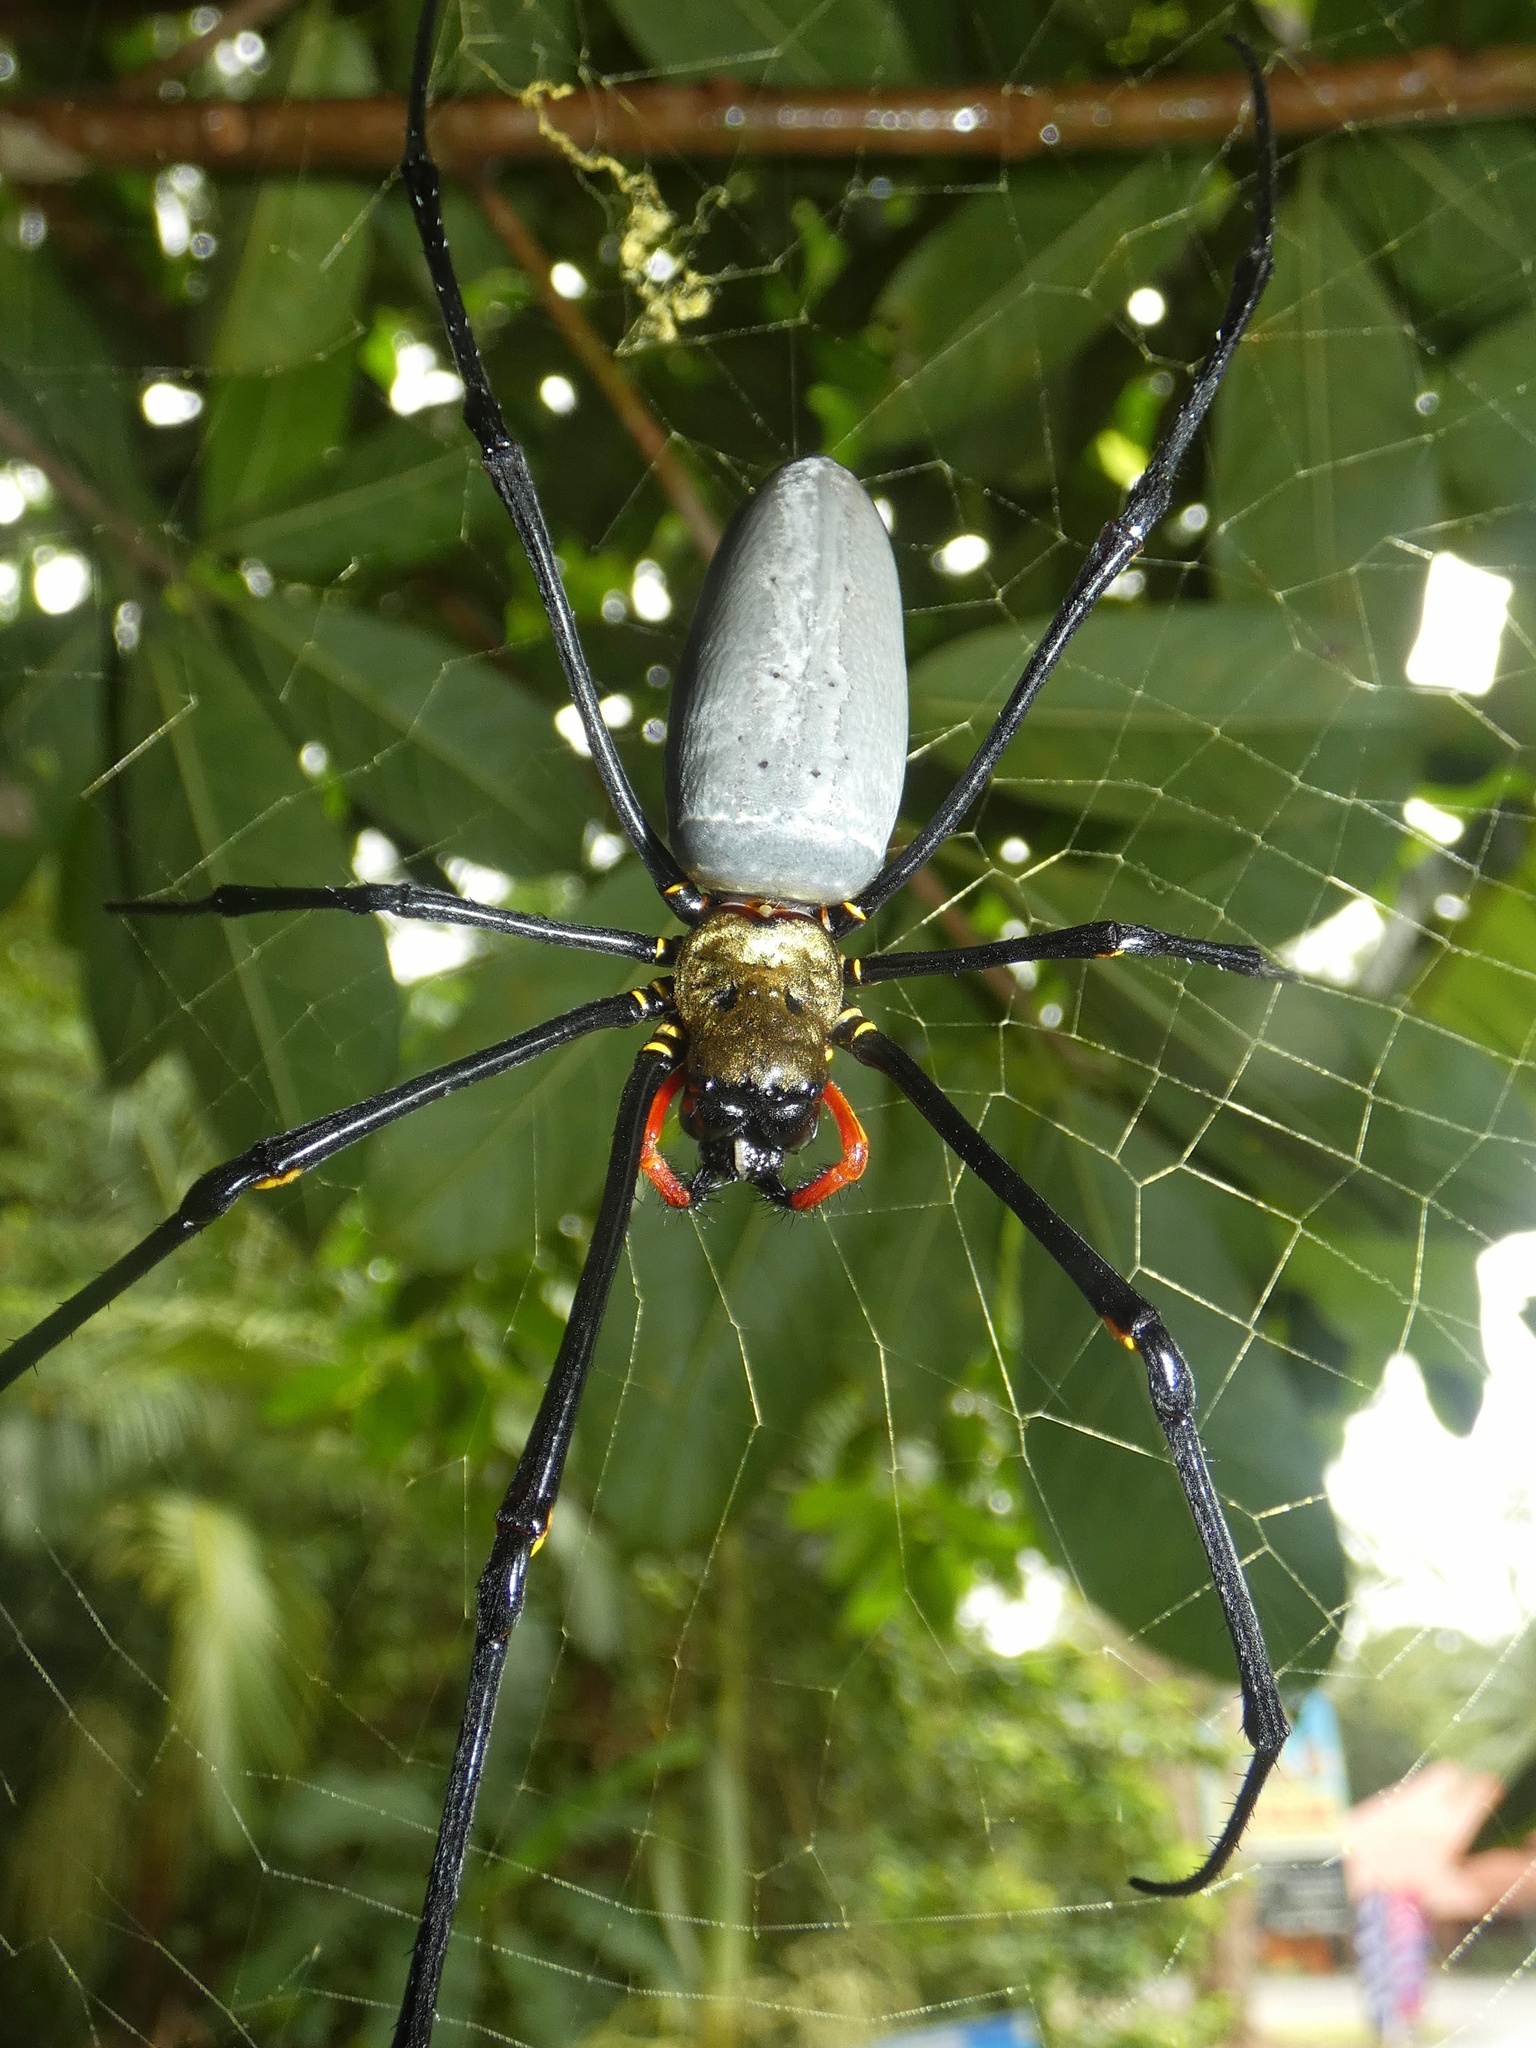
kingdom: Animalia
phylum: Arthropoda
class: Arachnida
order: Araneae
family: Araneidae
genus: Nephila
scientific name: Nephila pilipes
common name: Giant golden orb weaver
